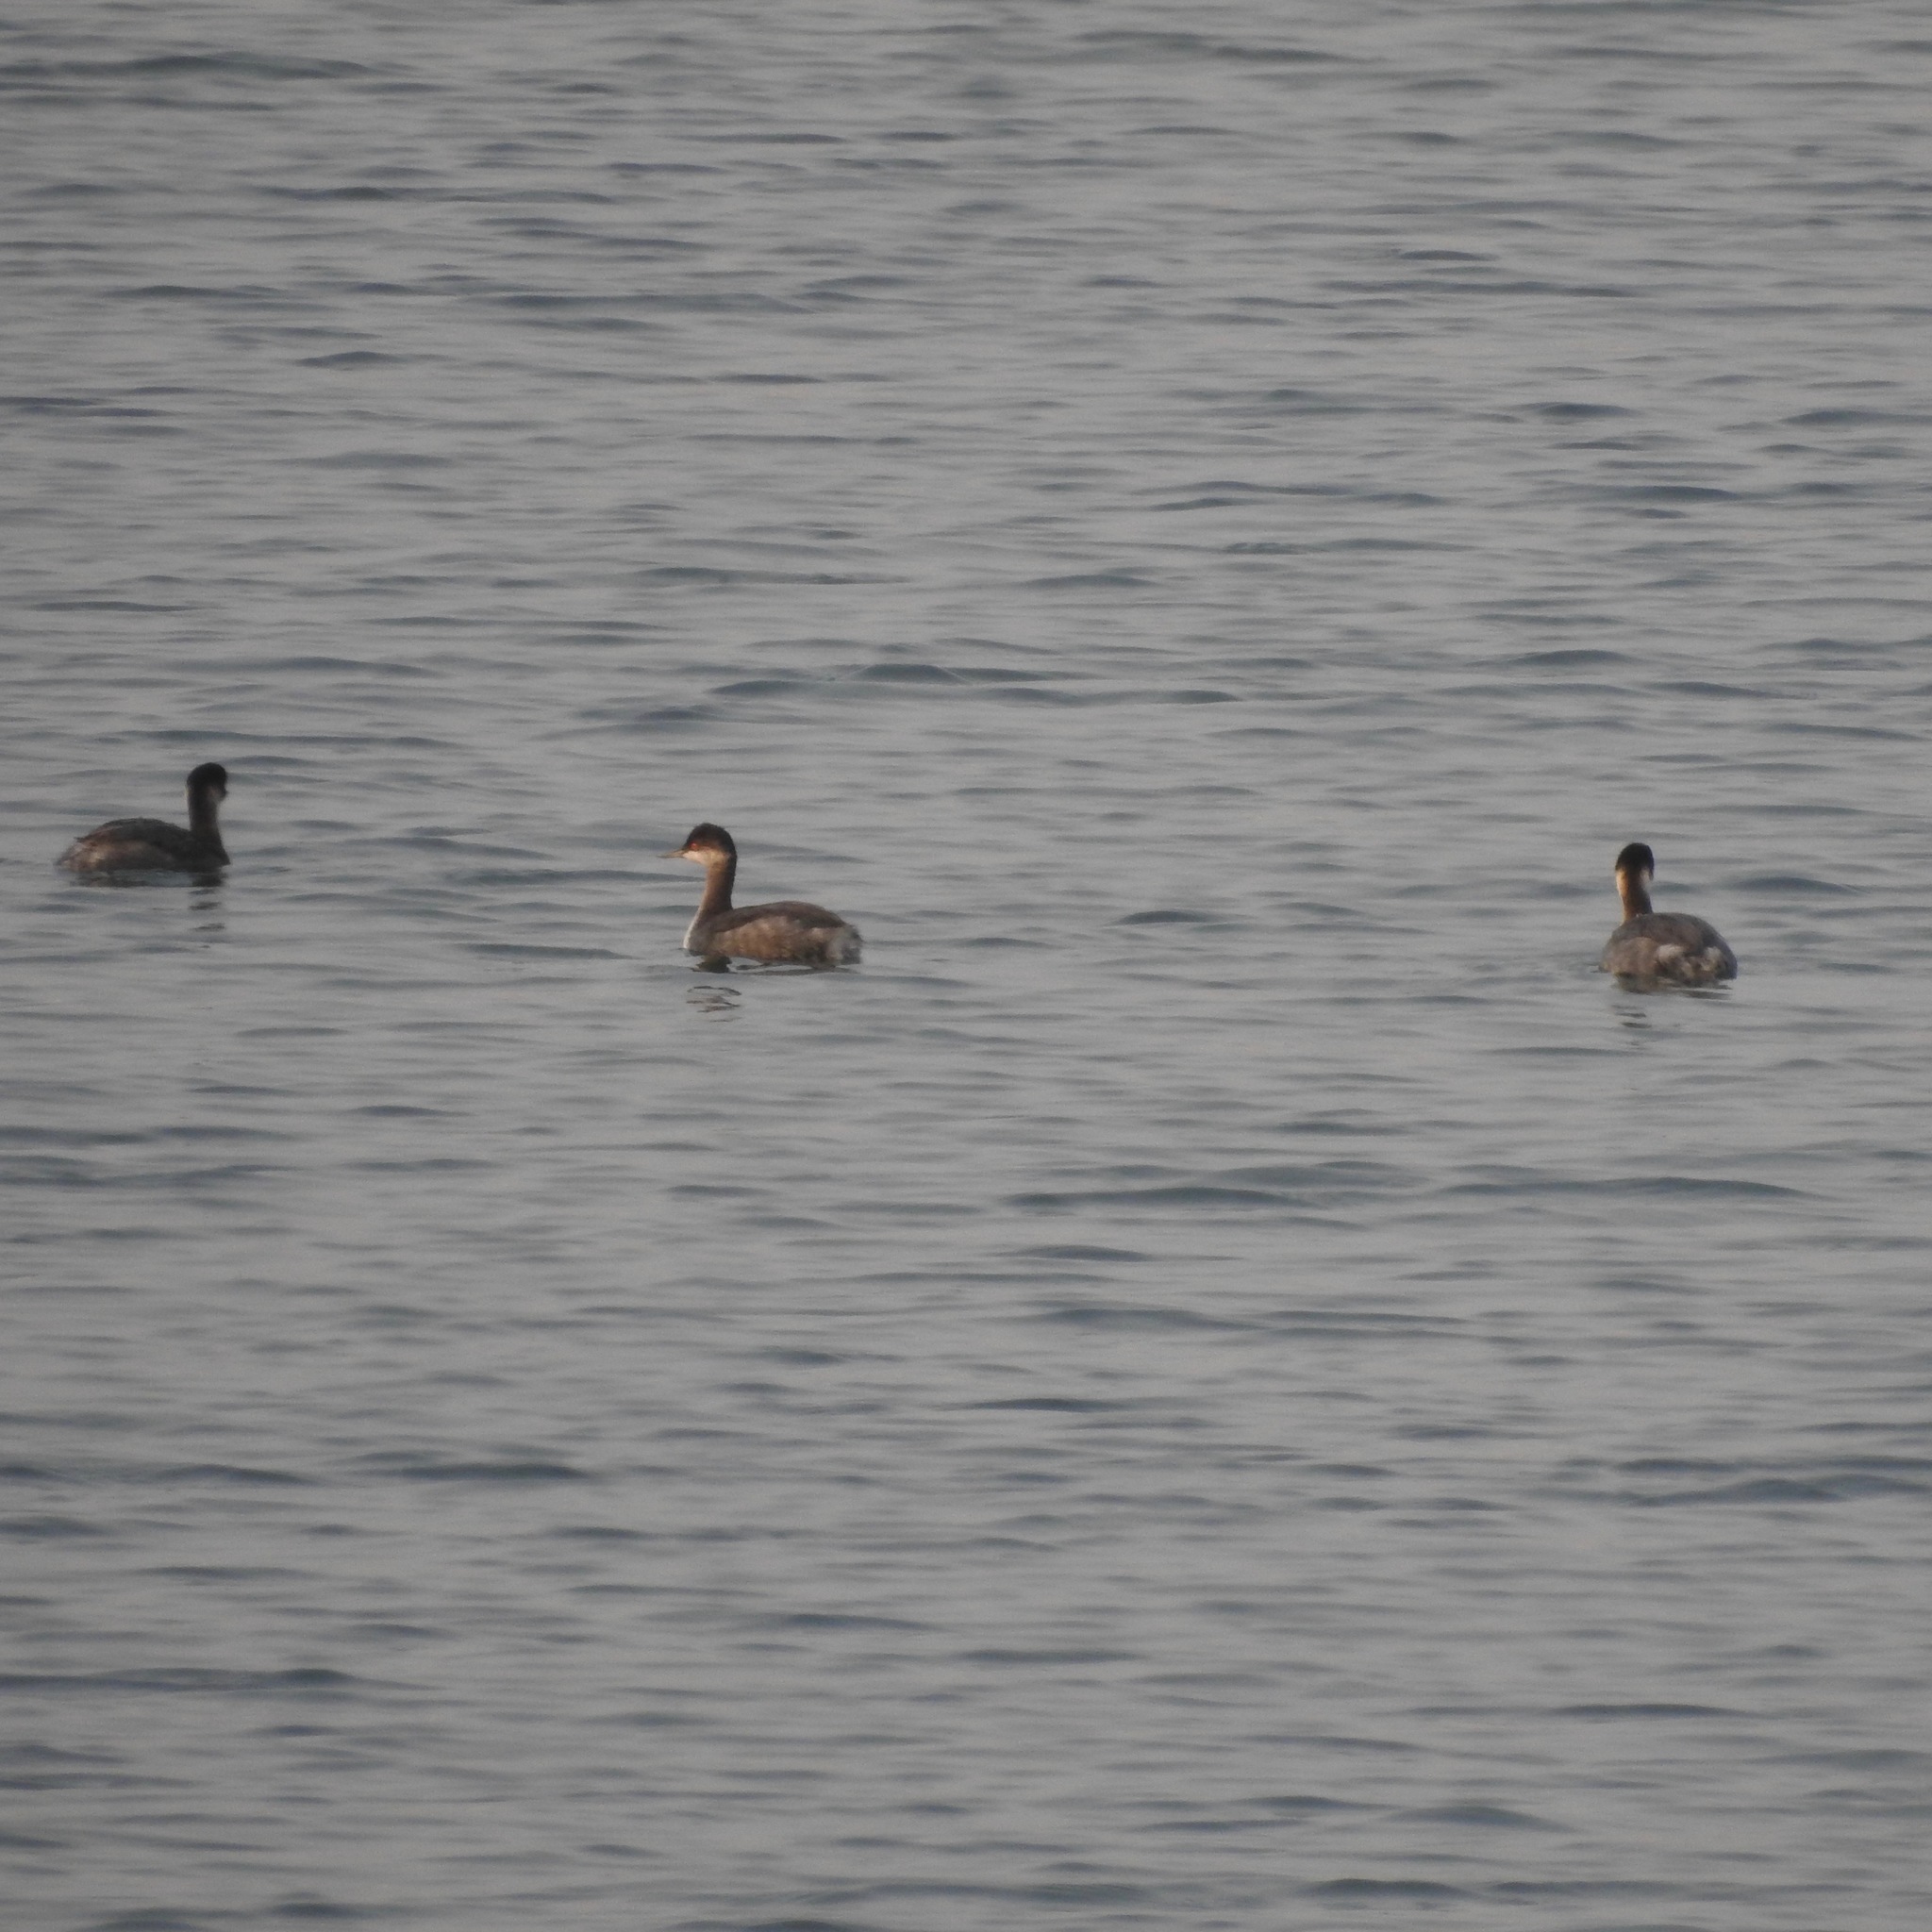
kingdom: Animalia
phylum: Chordata
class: Aves
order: Podicipediformes
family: Podicipedidae
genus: Podiceps
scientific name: Podiceps nigricollis
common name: Black-necked grebe
